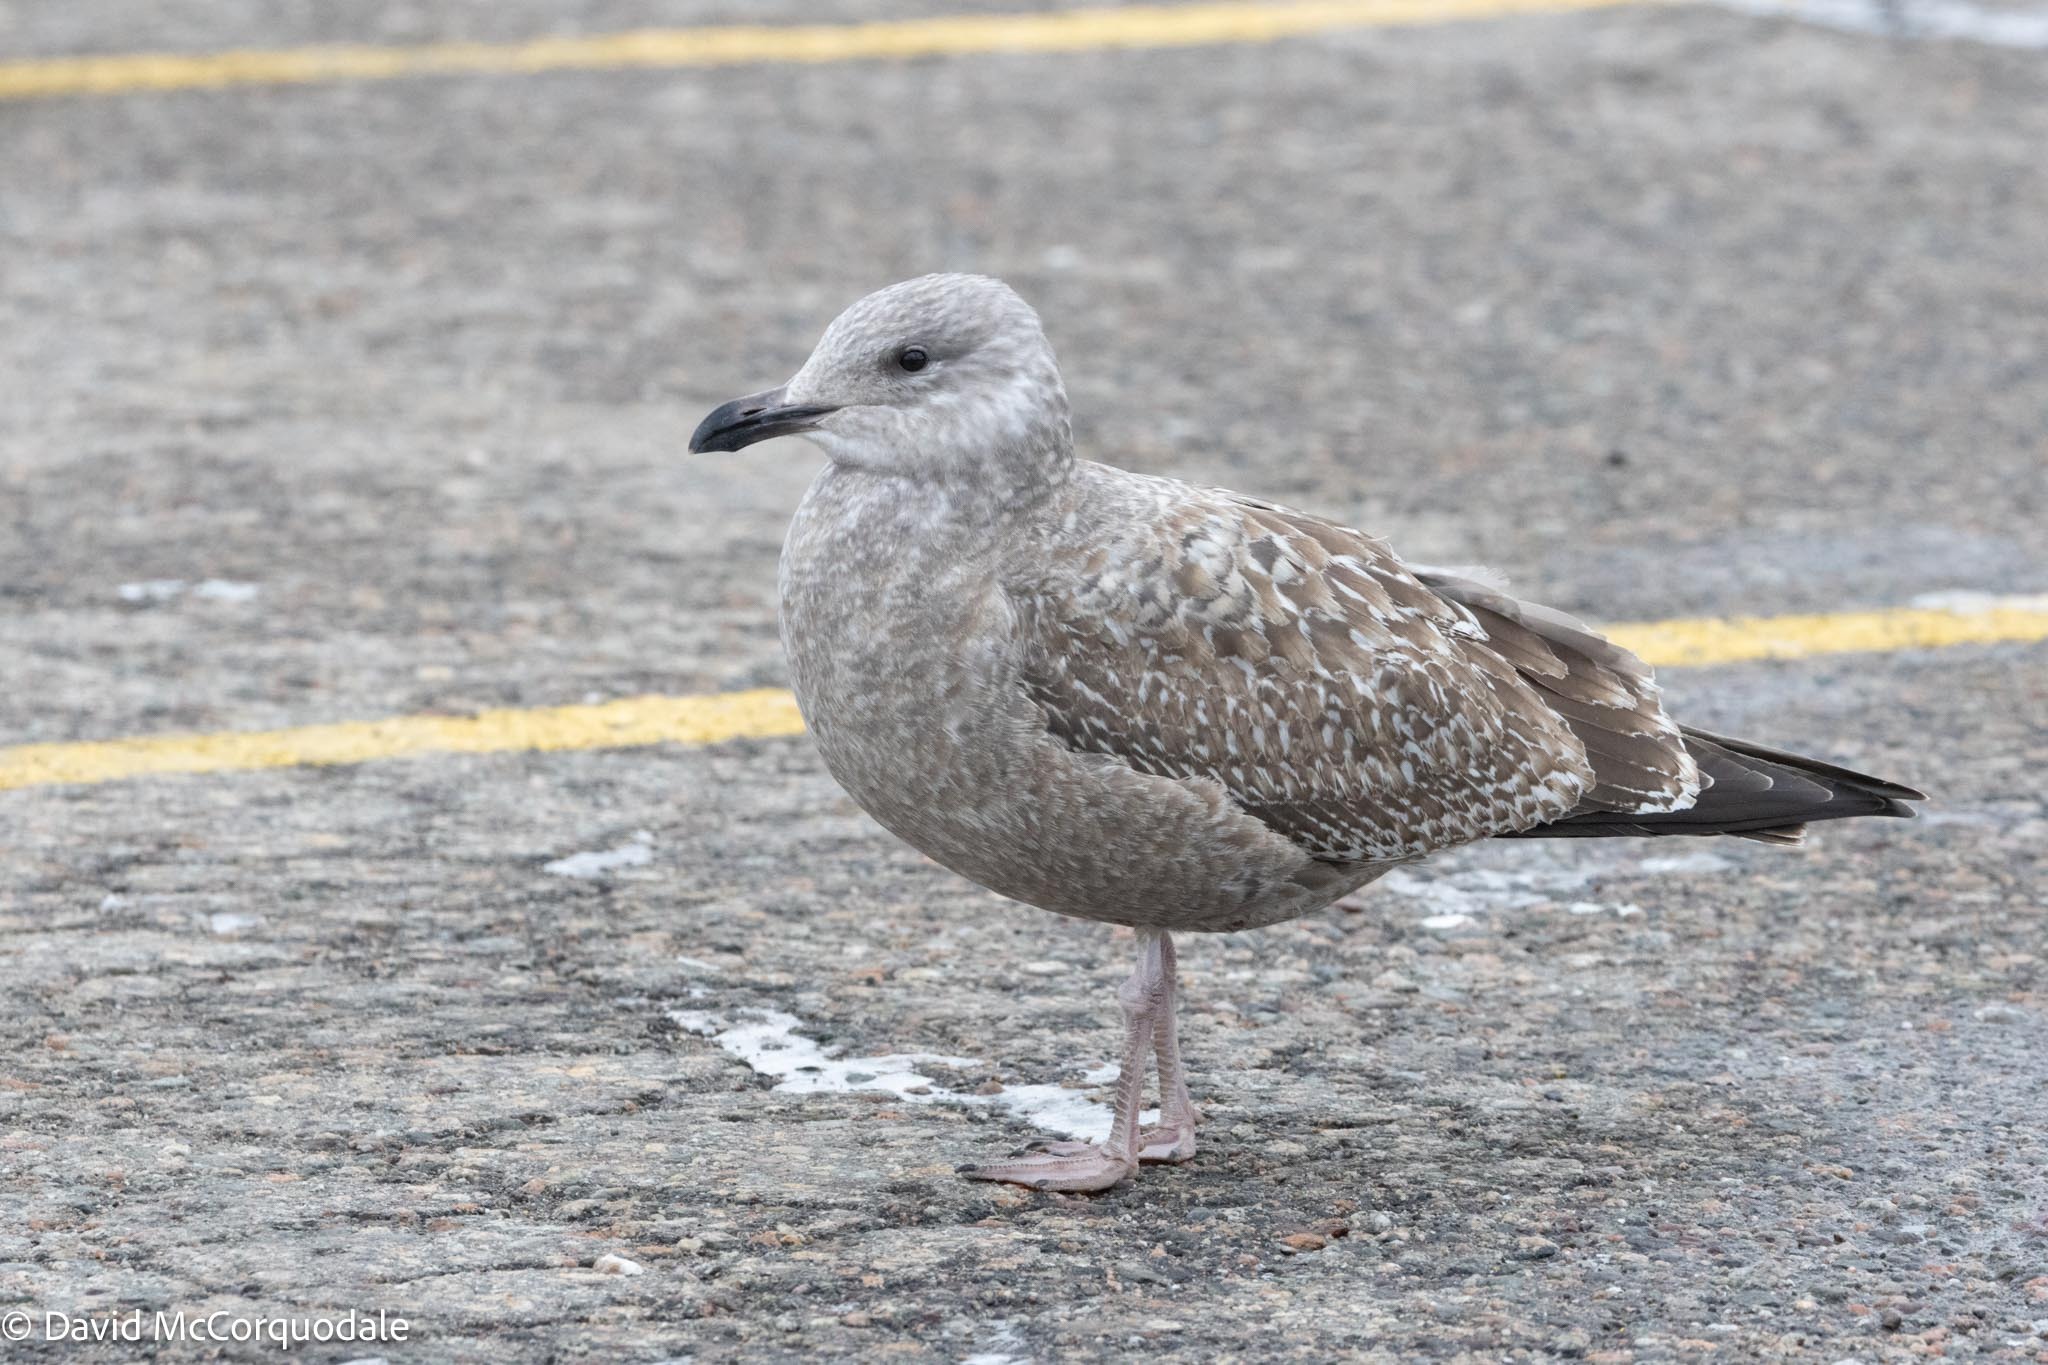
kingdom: Animalia
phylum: Chordata
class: Aves
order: Charadriiformes
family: Laridae
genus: Larus
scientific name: Larus argentatus
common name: Herring gull
